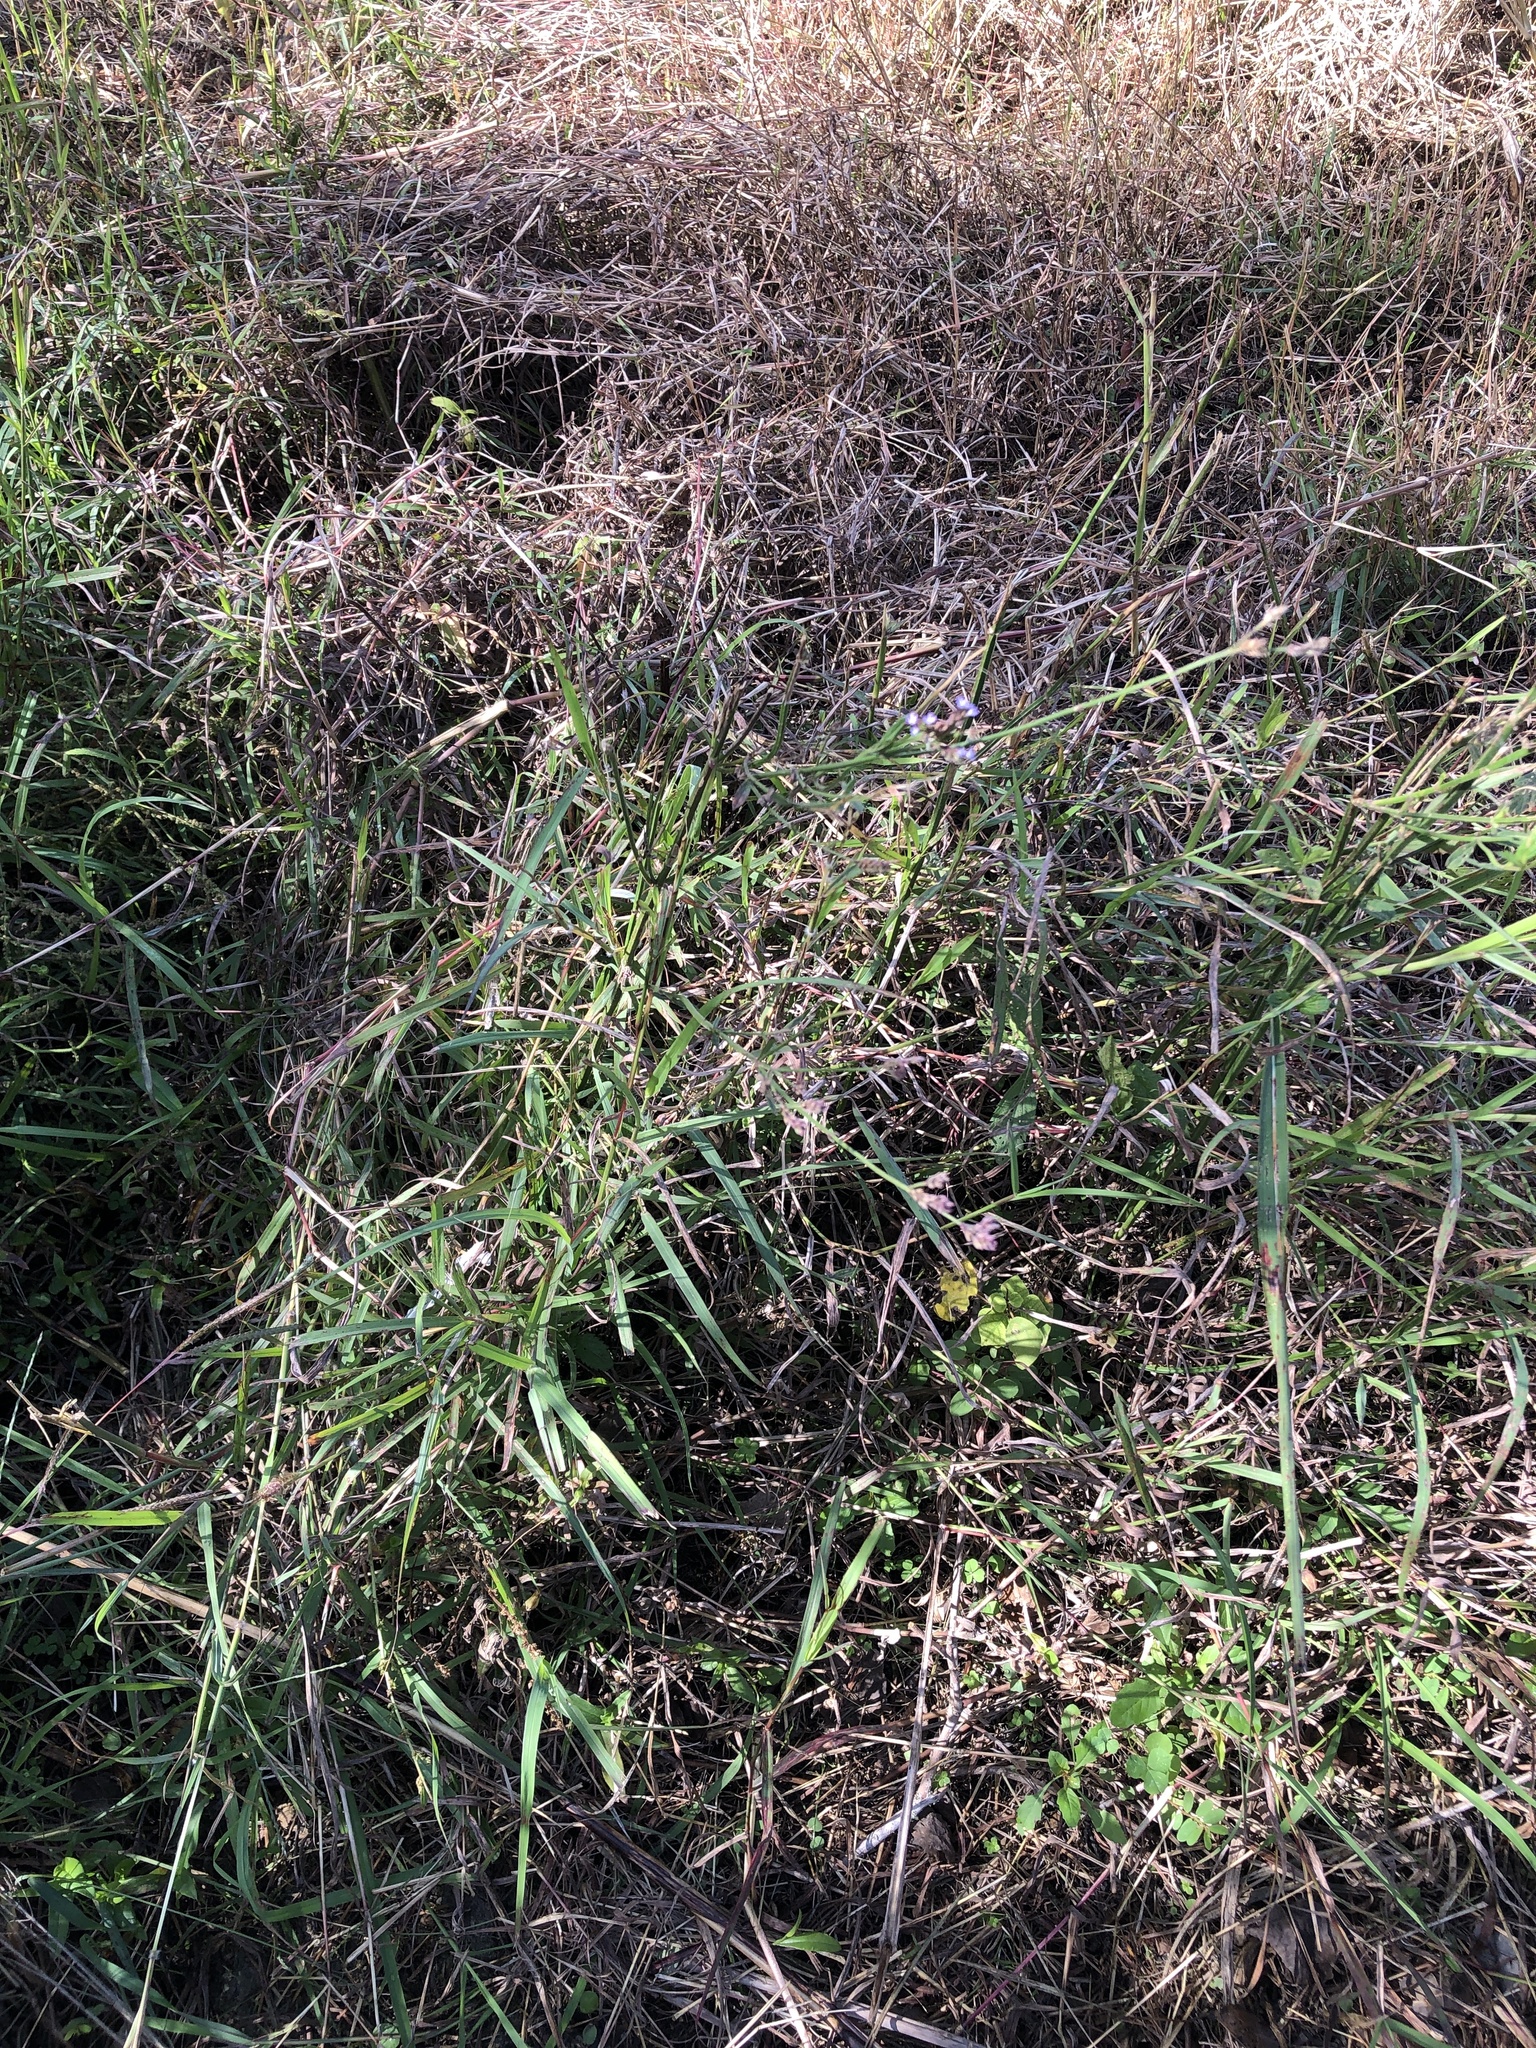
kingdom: Plantae
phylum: Tracheophyta
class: Magnoliopsida
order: Lamiales
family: Verbenaceae
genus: Verbena
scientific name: Verbena brasiliensis
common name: Brazilian vervain
